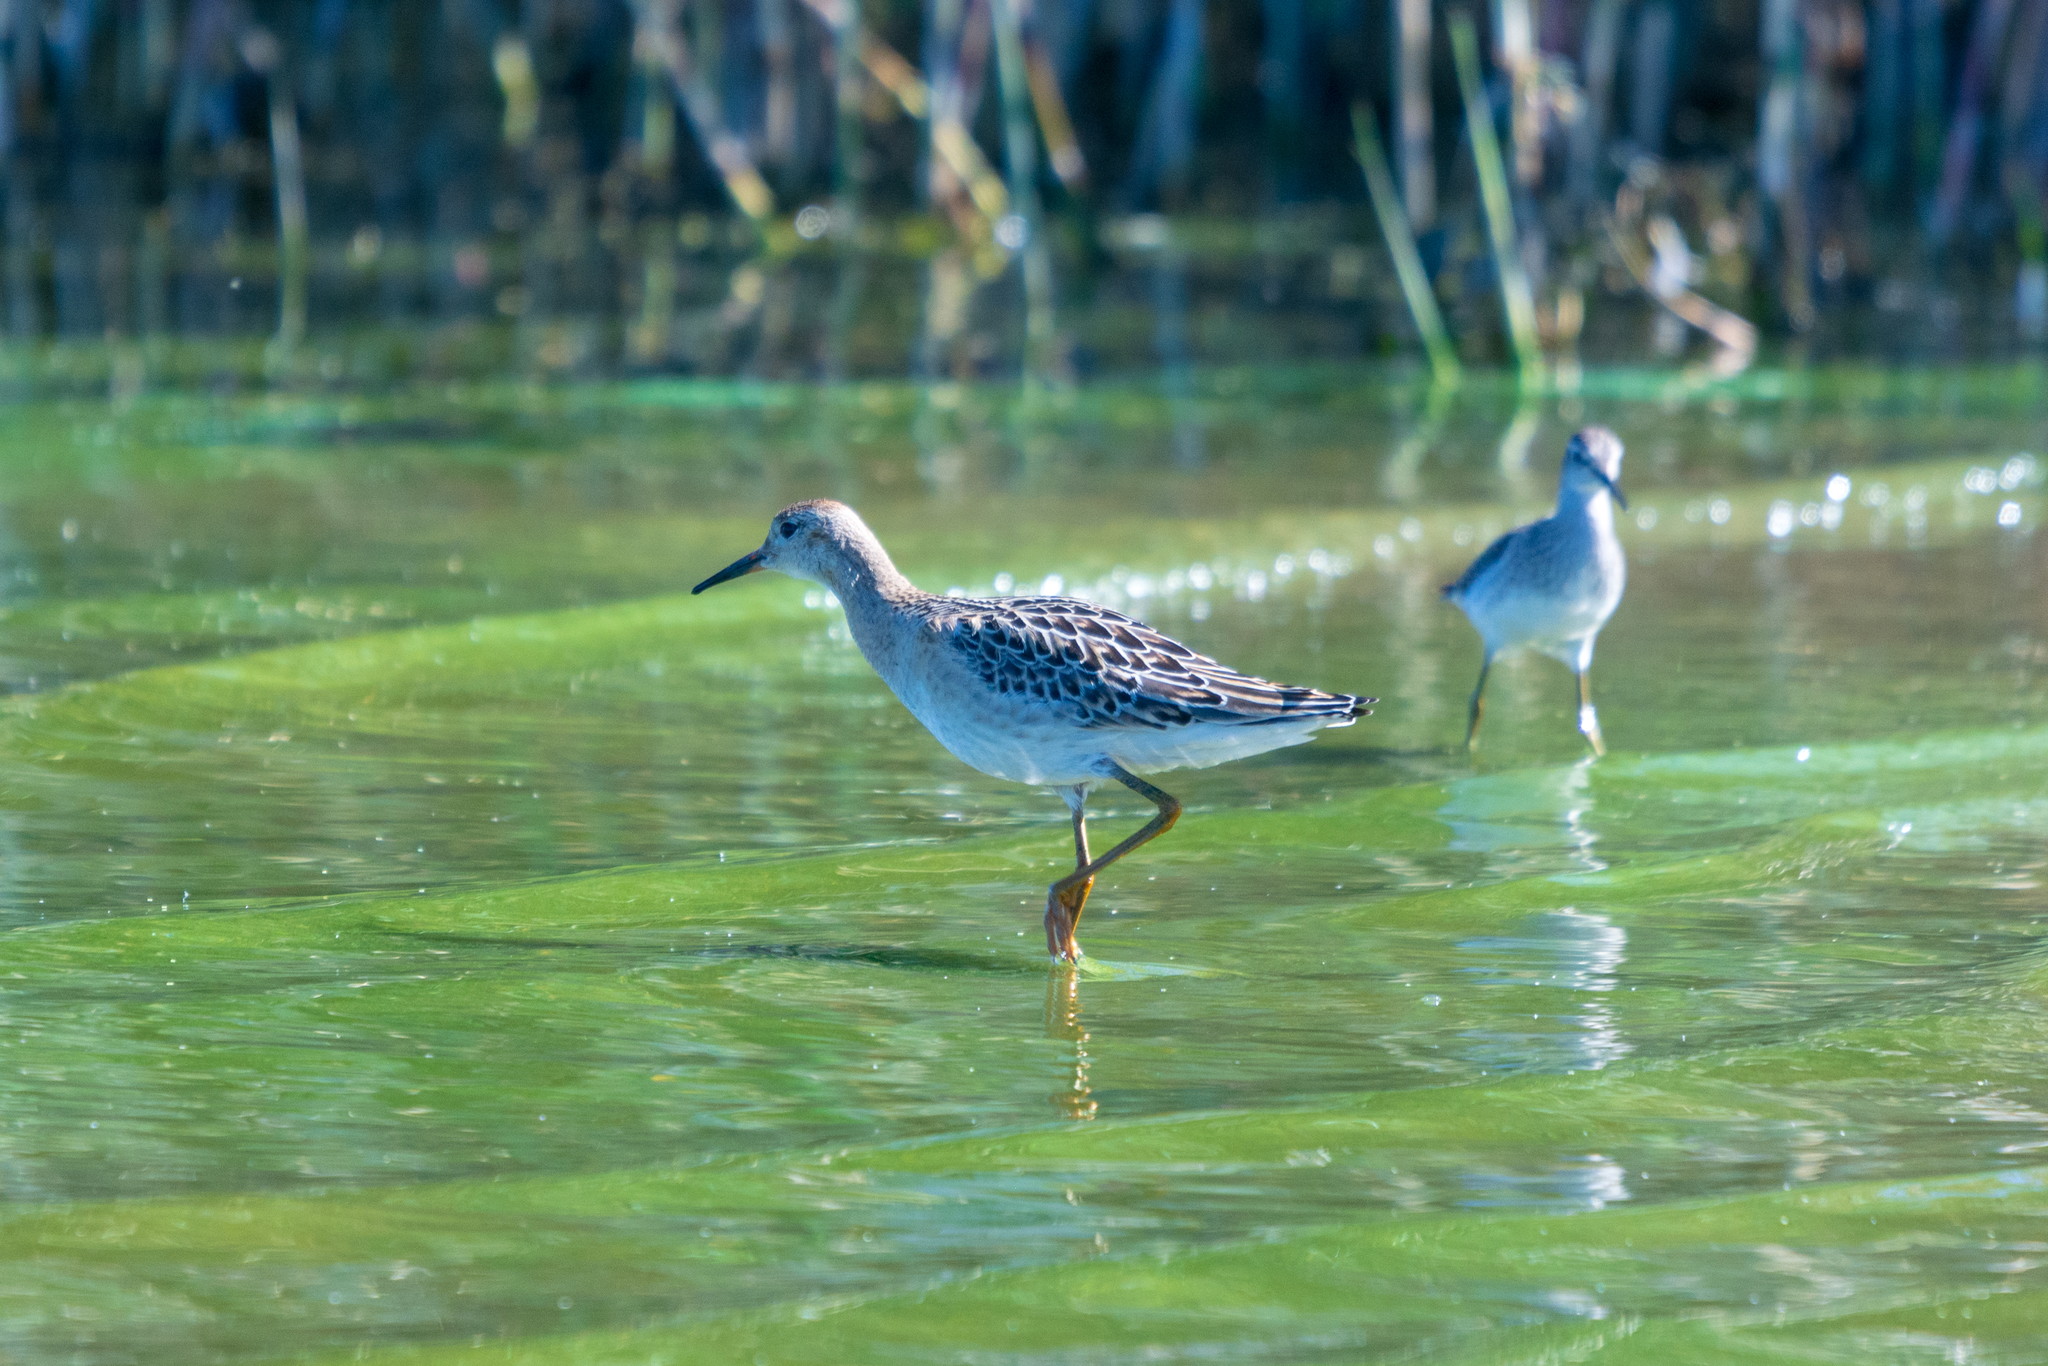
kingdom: Animalia
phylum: Chordata
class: Aves
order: Charadriiformes
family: Scolopacidae
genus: Calidris
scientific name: Calidris pugnax
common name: Ruff
